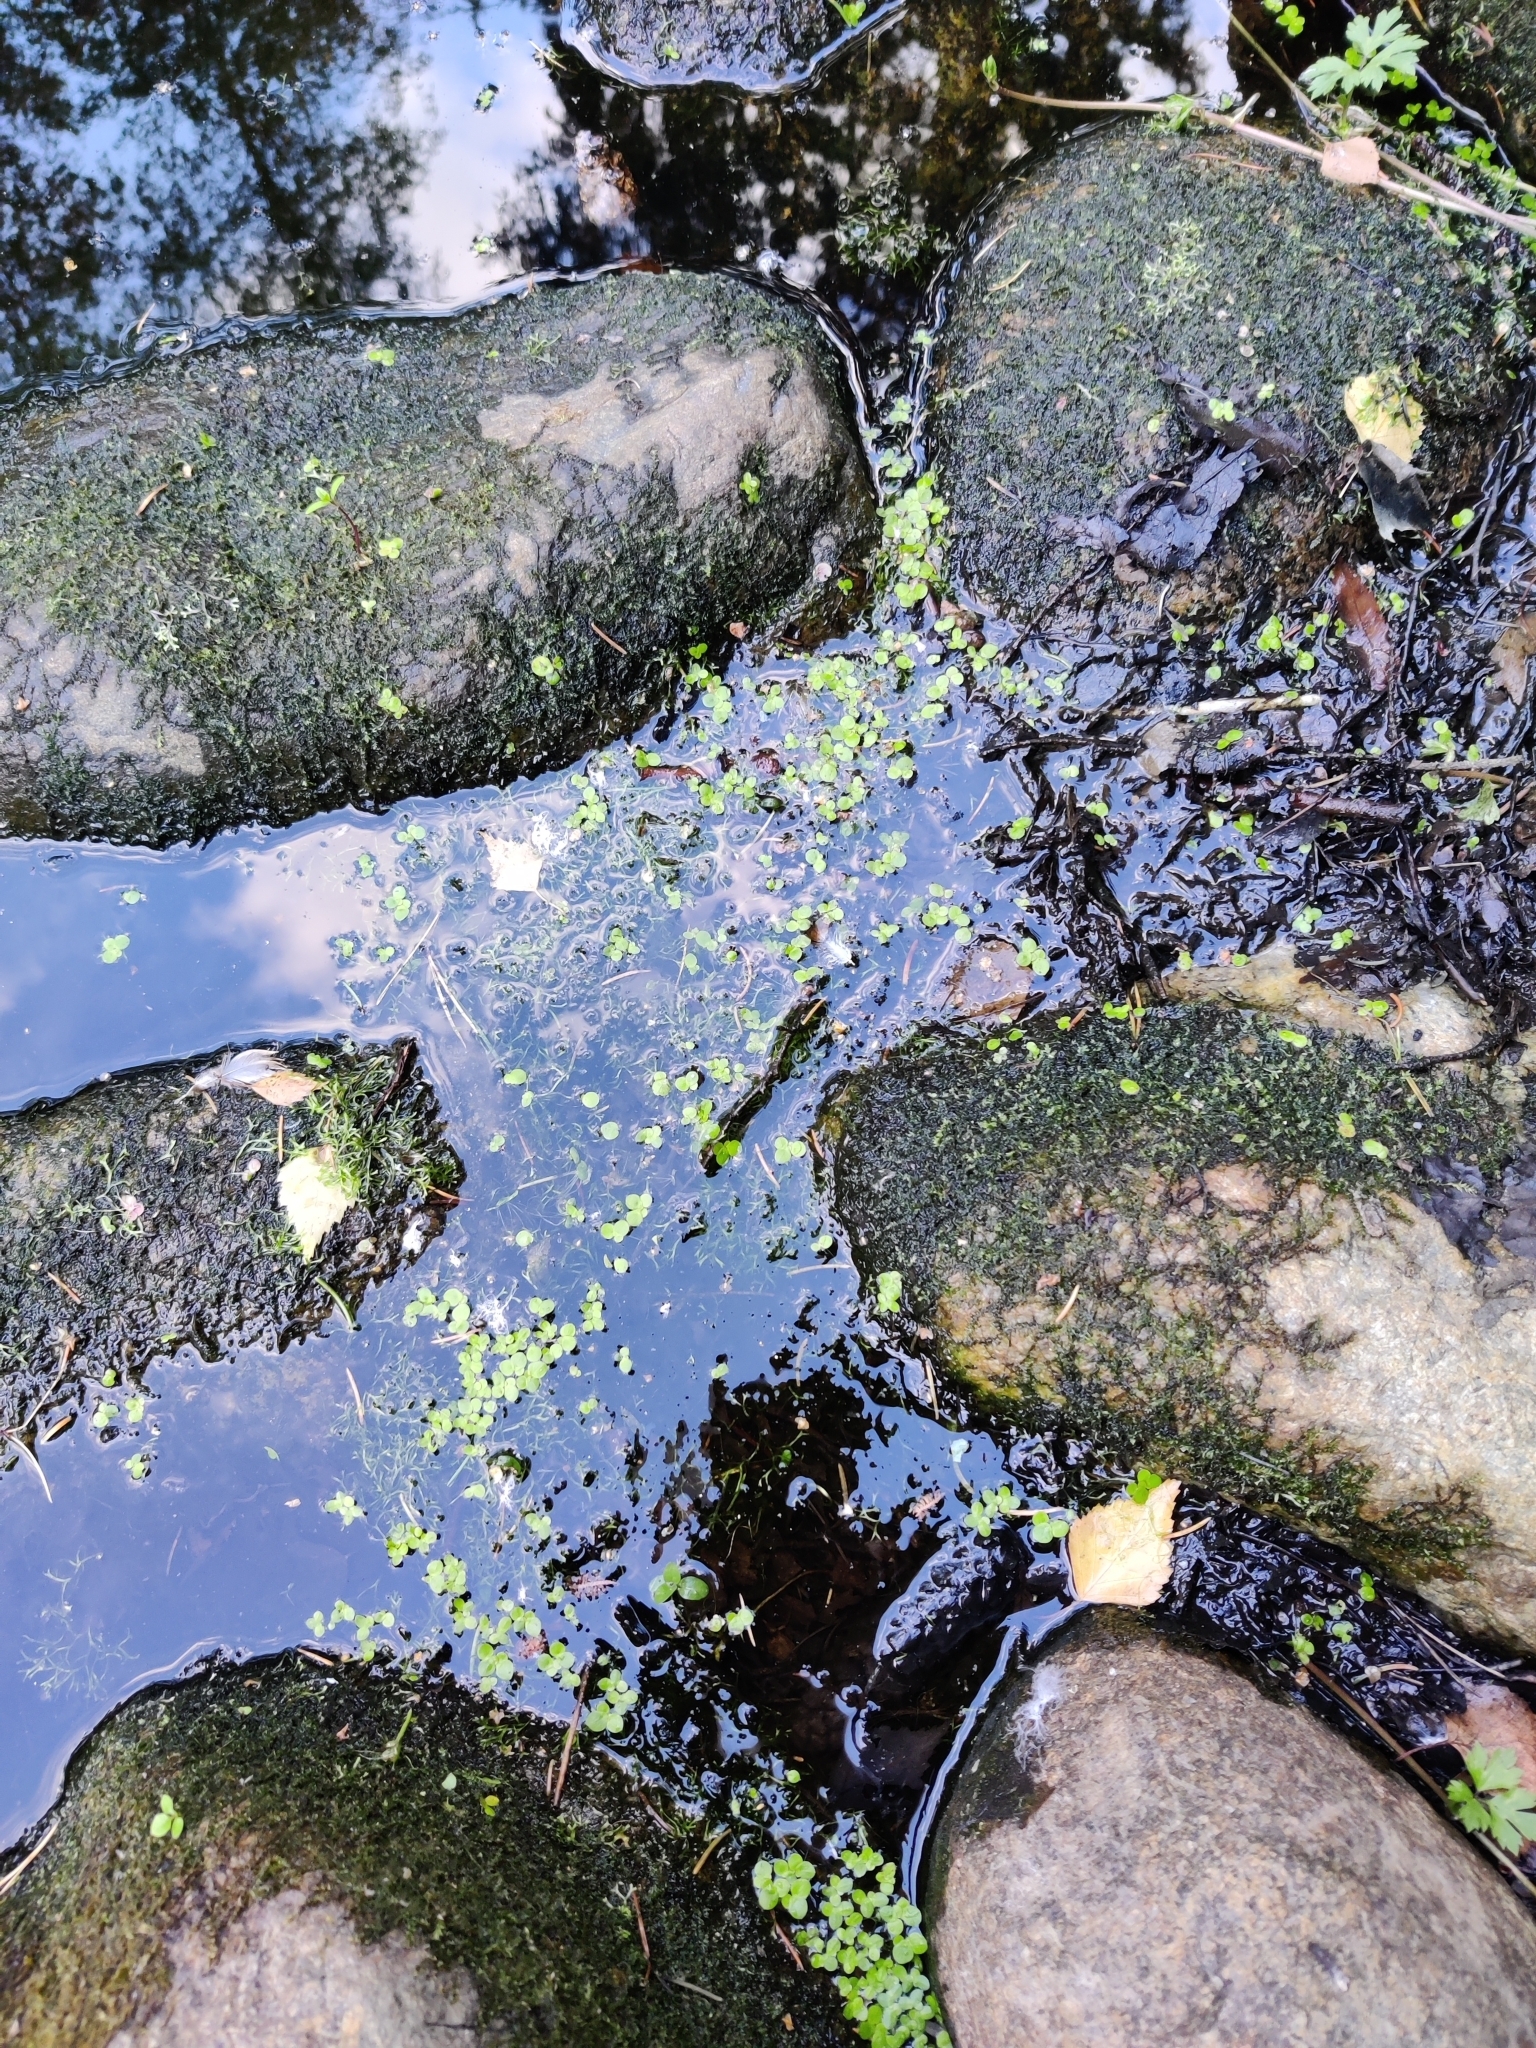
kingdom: Plantae
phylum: Tracheophyta
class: Liliopsida
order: Alismatales
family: Araceae
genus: Spirodela
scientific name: Spirodela polyrhiza
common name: Great duckweed
